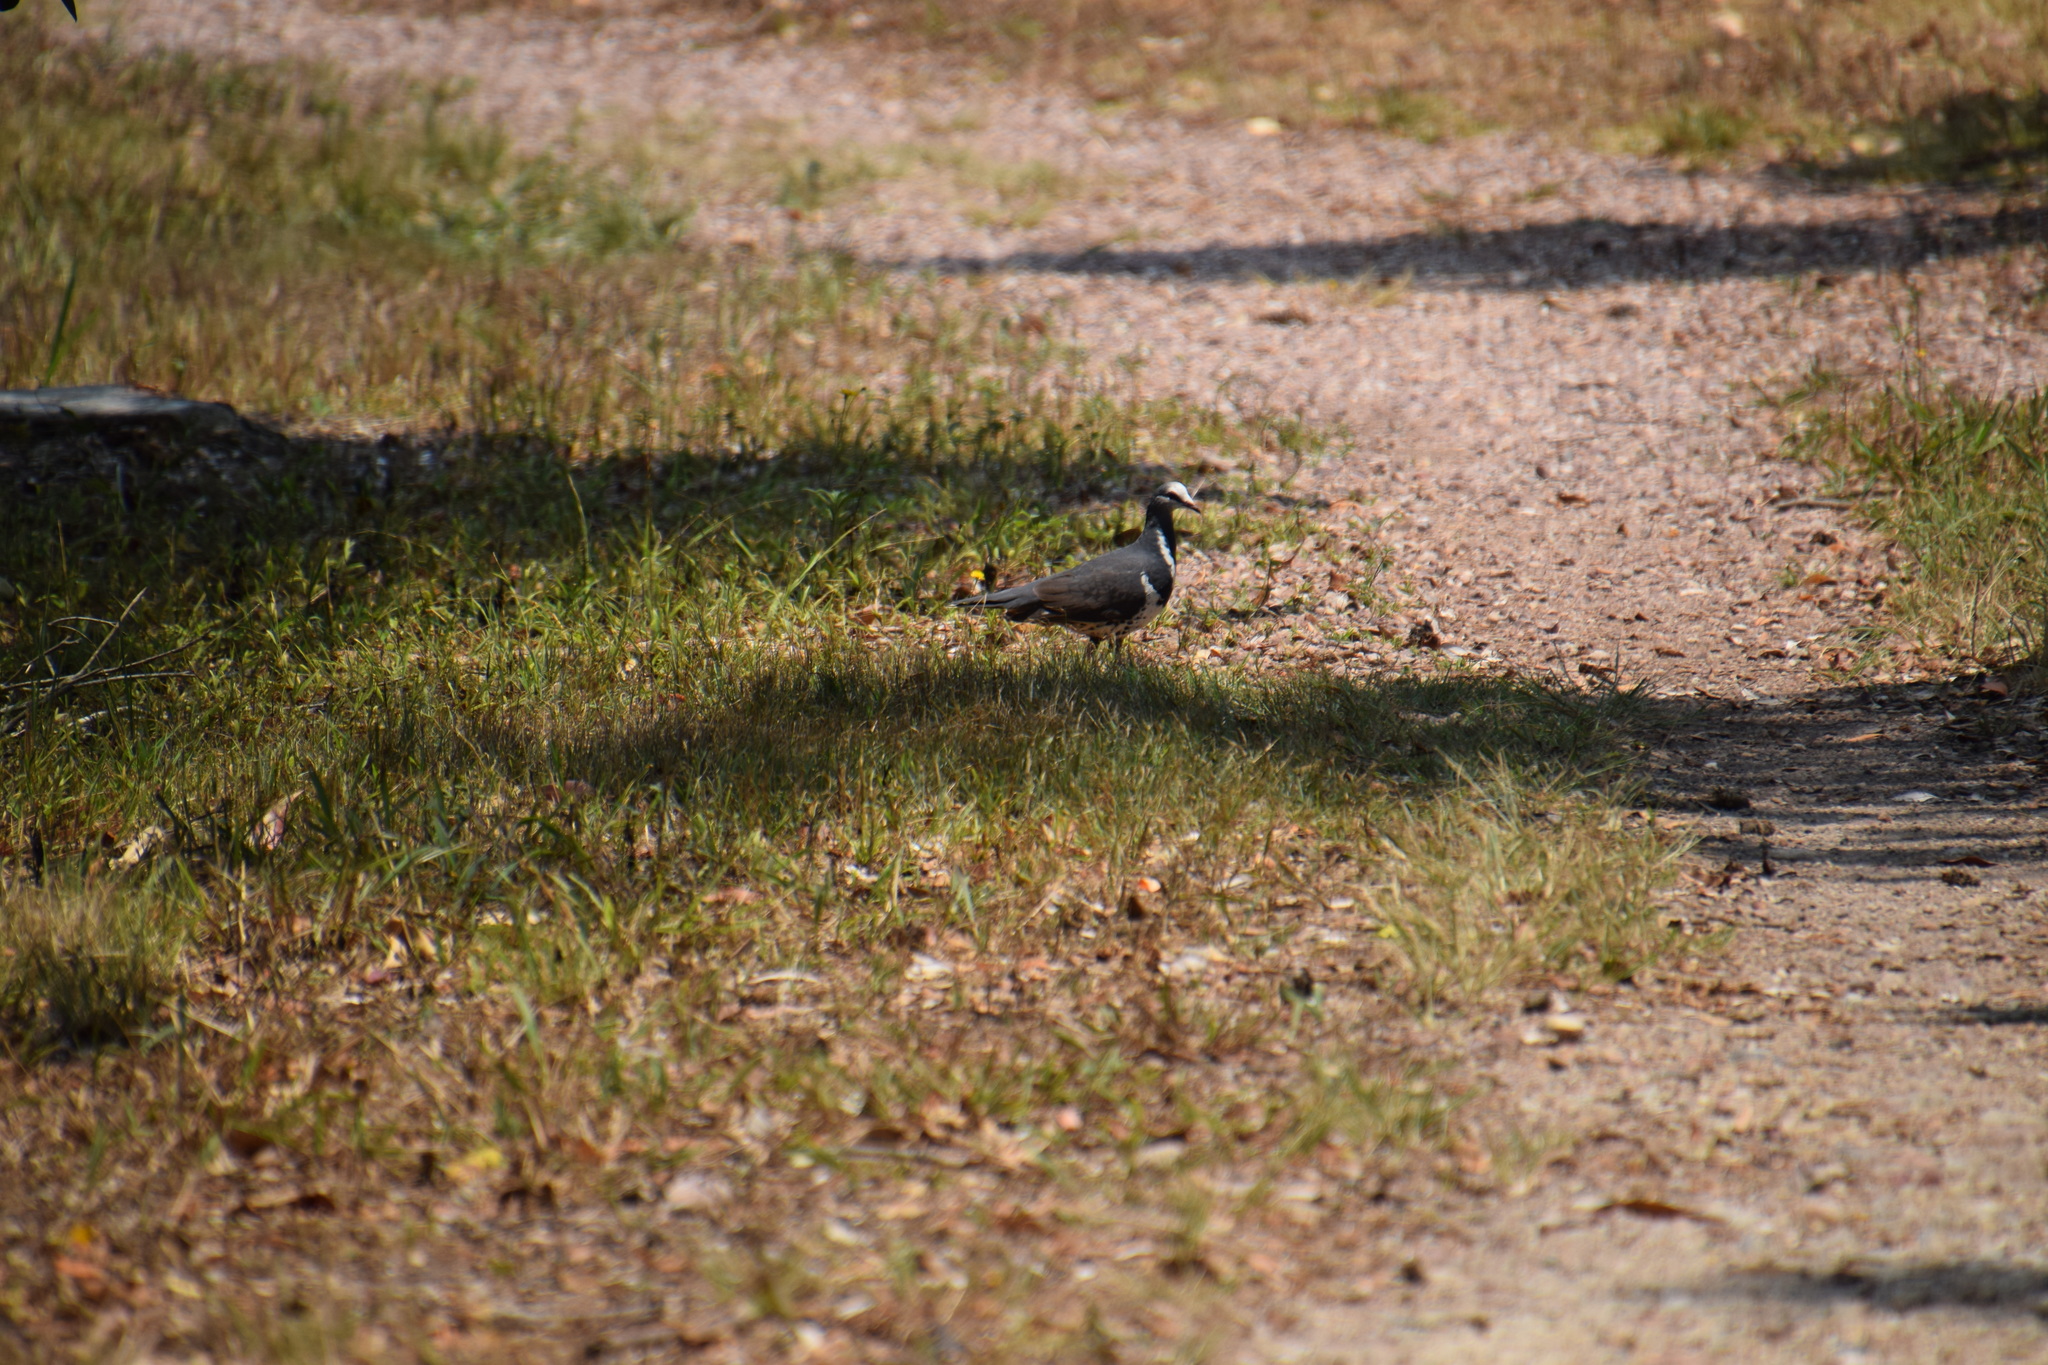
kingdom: Animalia
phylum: Chordata
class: Aves
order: Columbiformes
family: Columbidae
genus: Leucosarcia
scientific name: Leucosarcia melanoleuca
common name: Wonga pigeon
